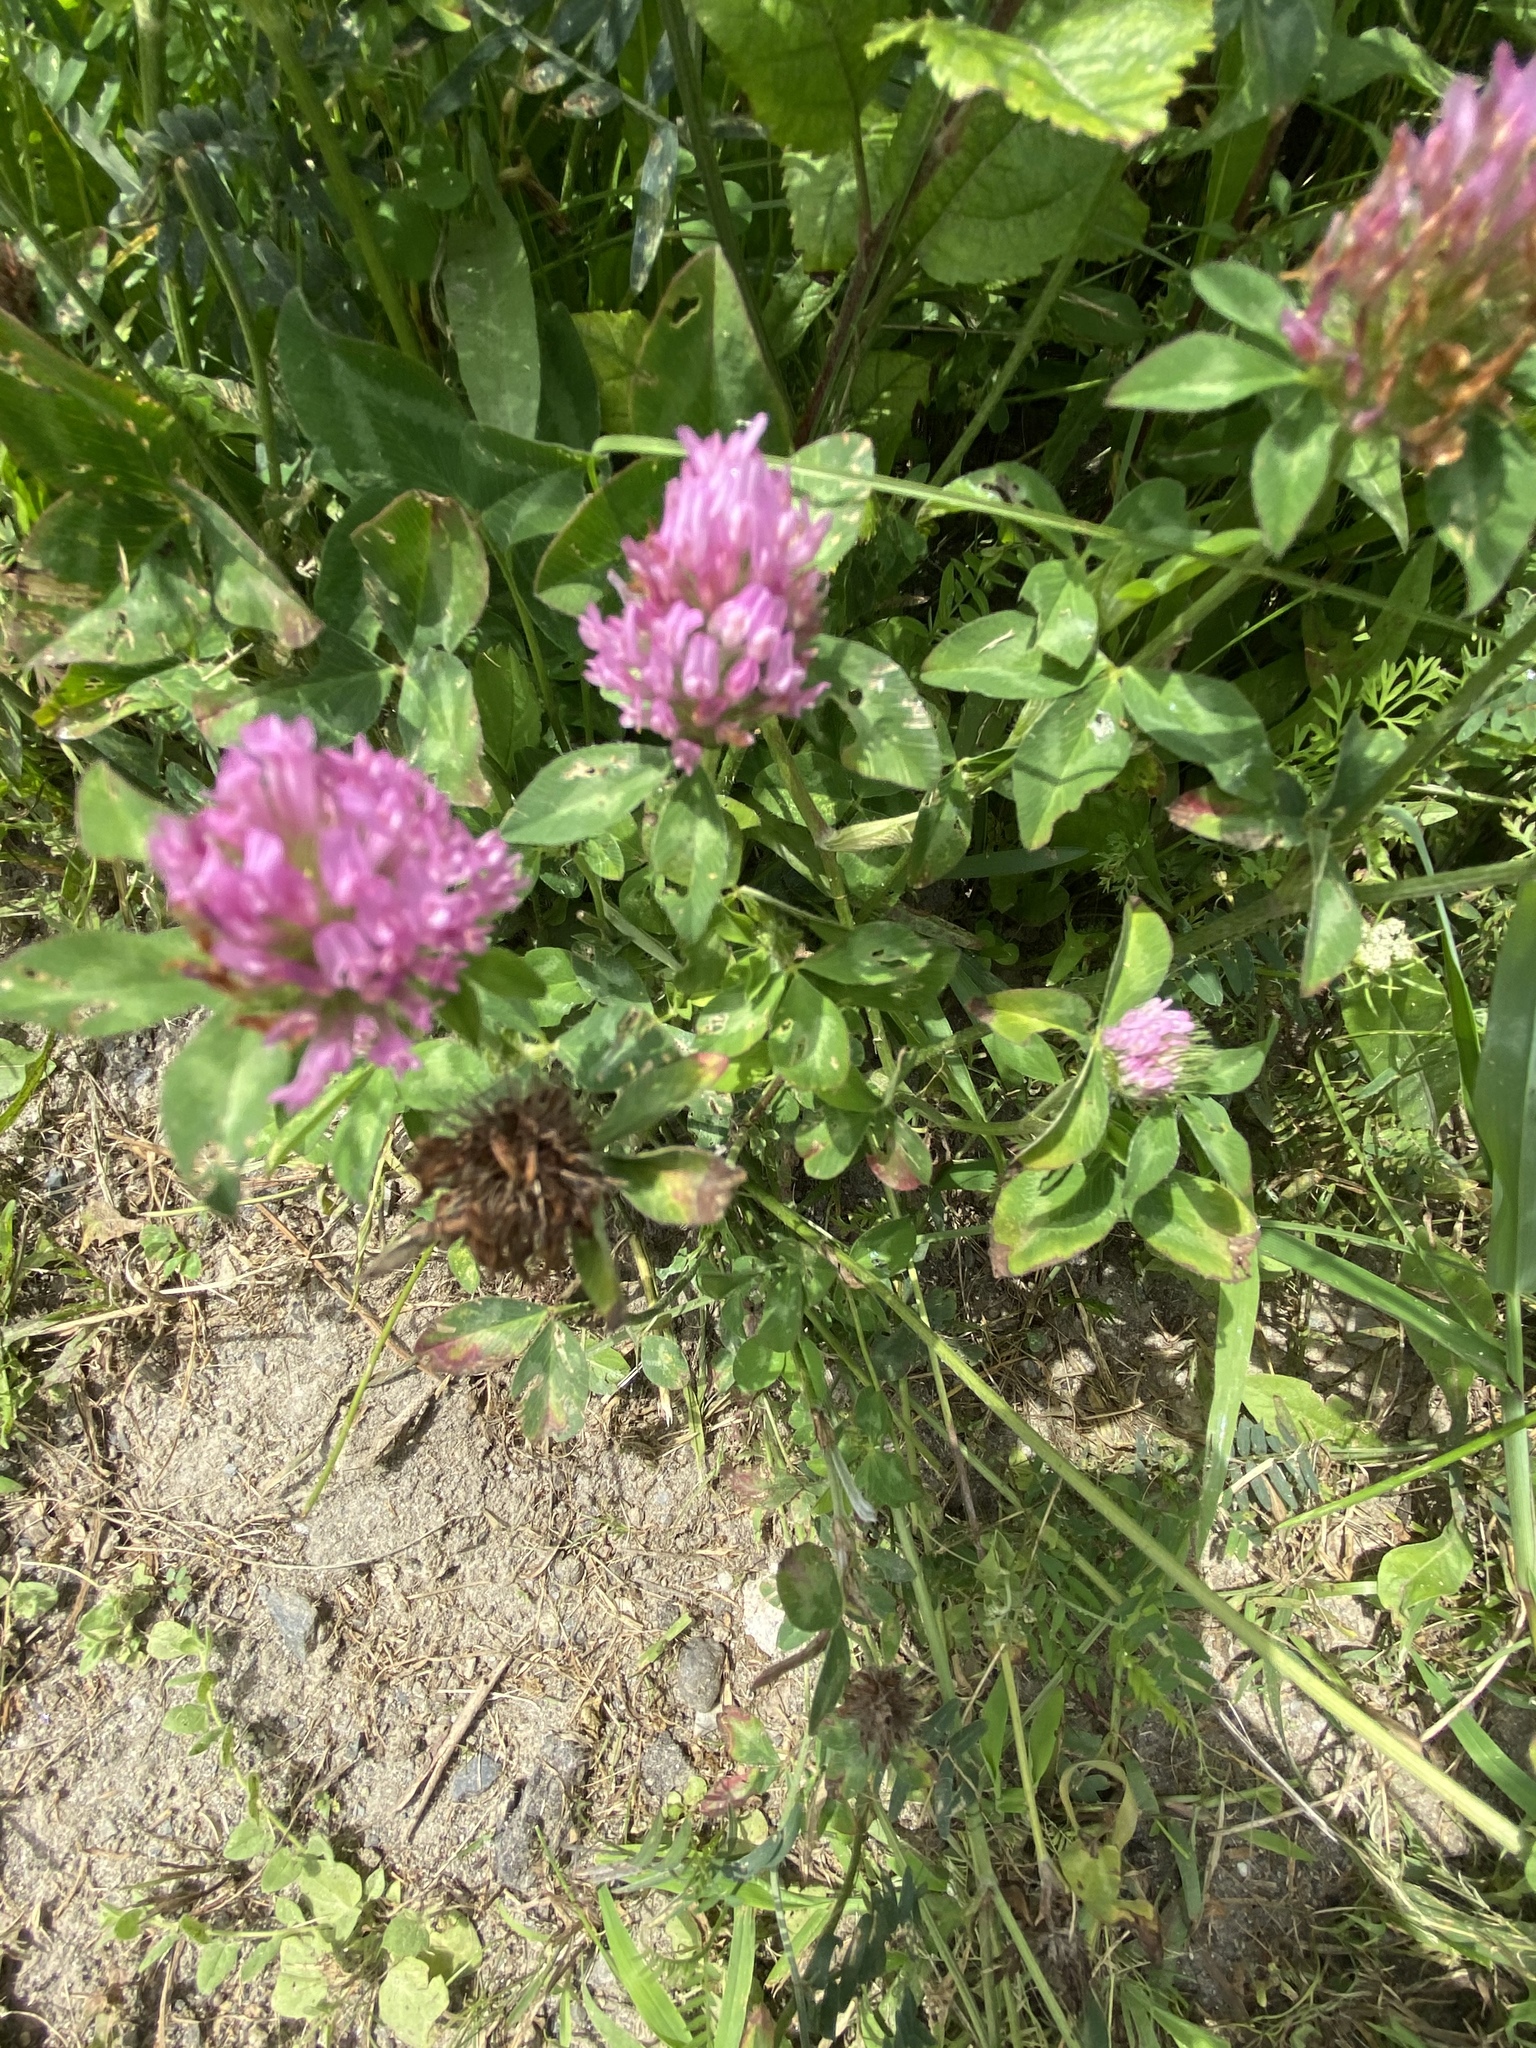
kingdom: Plantae
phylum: Tracheophyta
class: Magnoliopsida
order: Fabales
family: Fabaceae
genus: Trifolium
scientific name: Trifolium pratense
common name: Red clover
